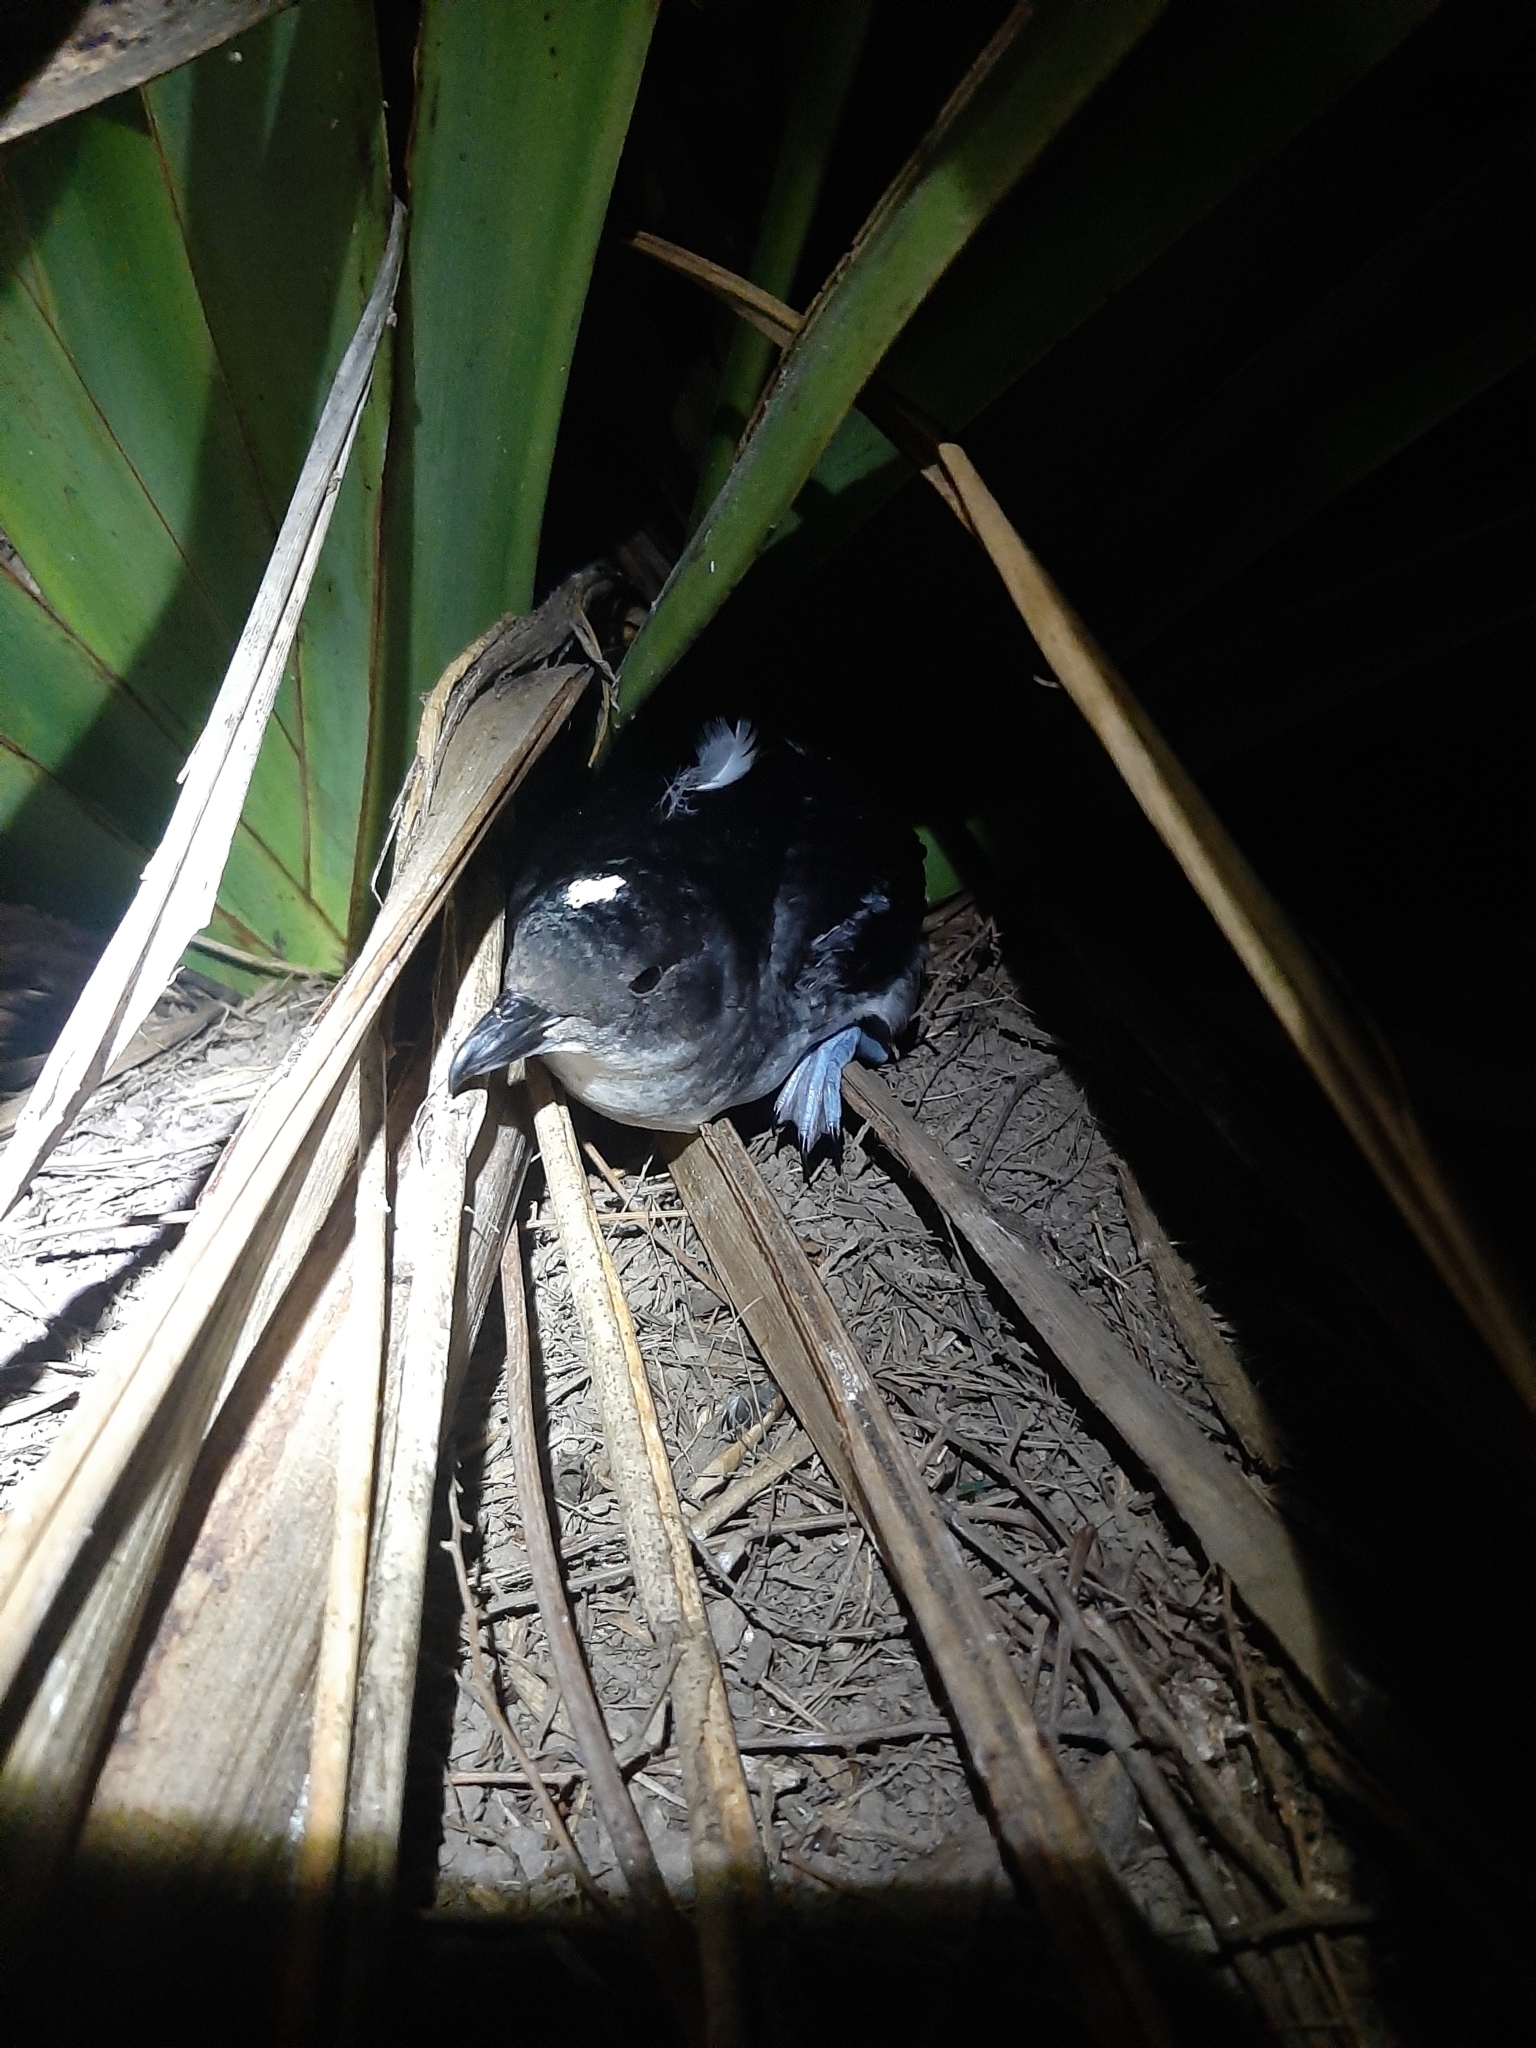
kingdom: Animalia
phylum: Chordata
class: Aves
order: Procellariiformes
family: Pelecanoididae
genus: Pelecanoides
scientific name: Pelecanoides urinatrix
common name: Common diving-petrel
